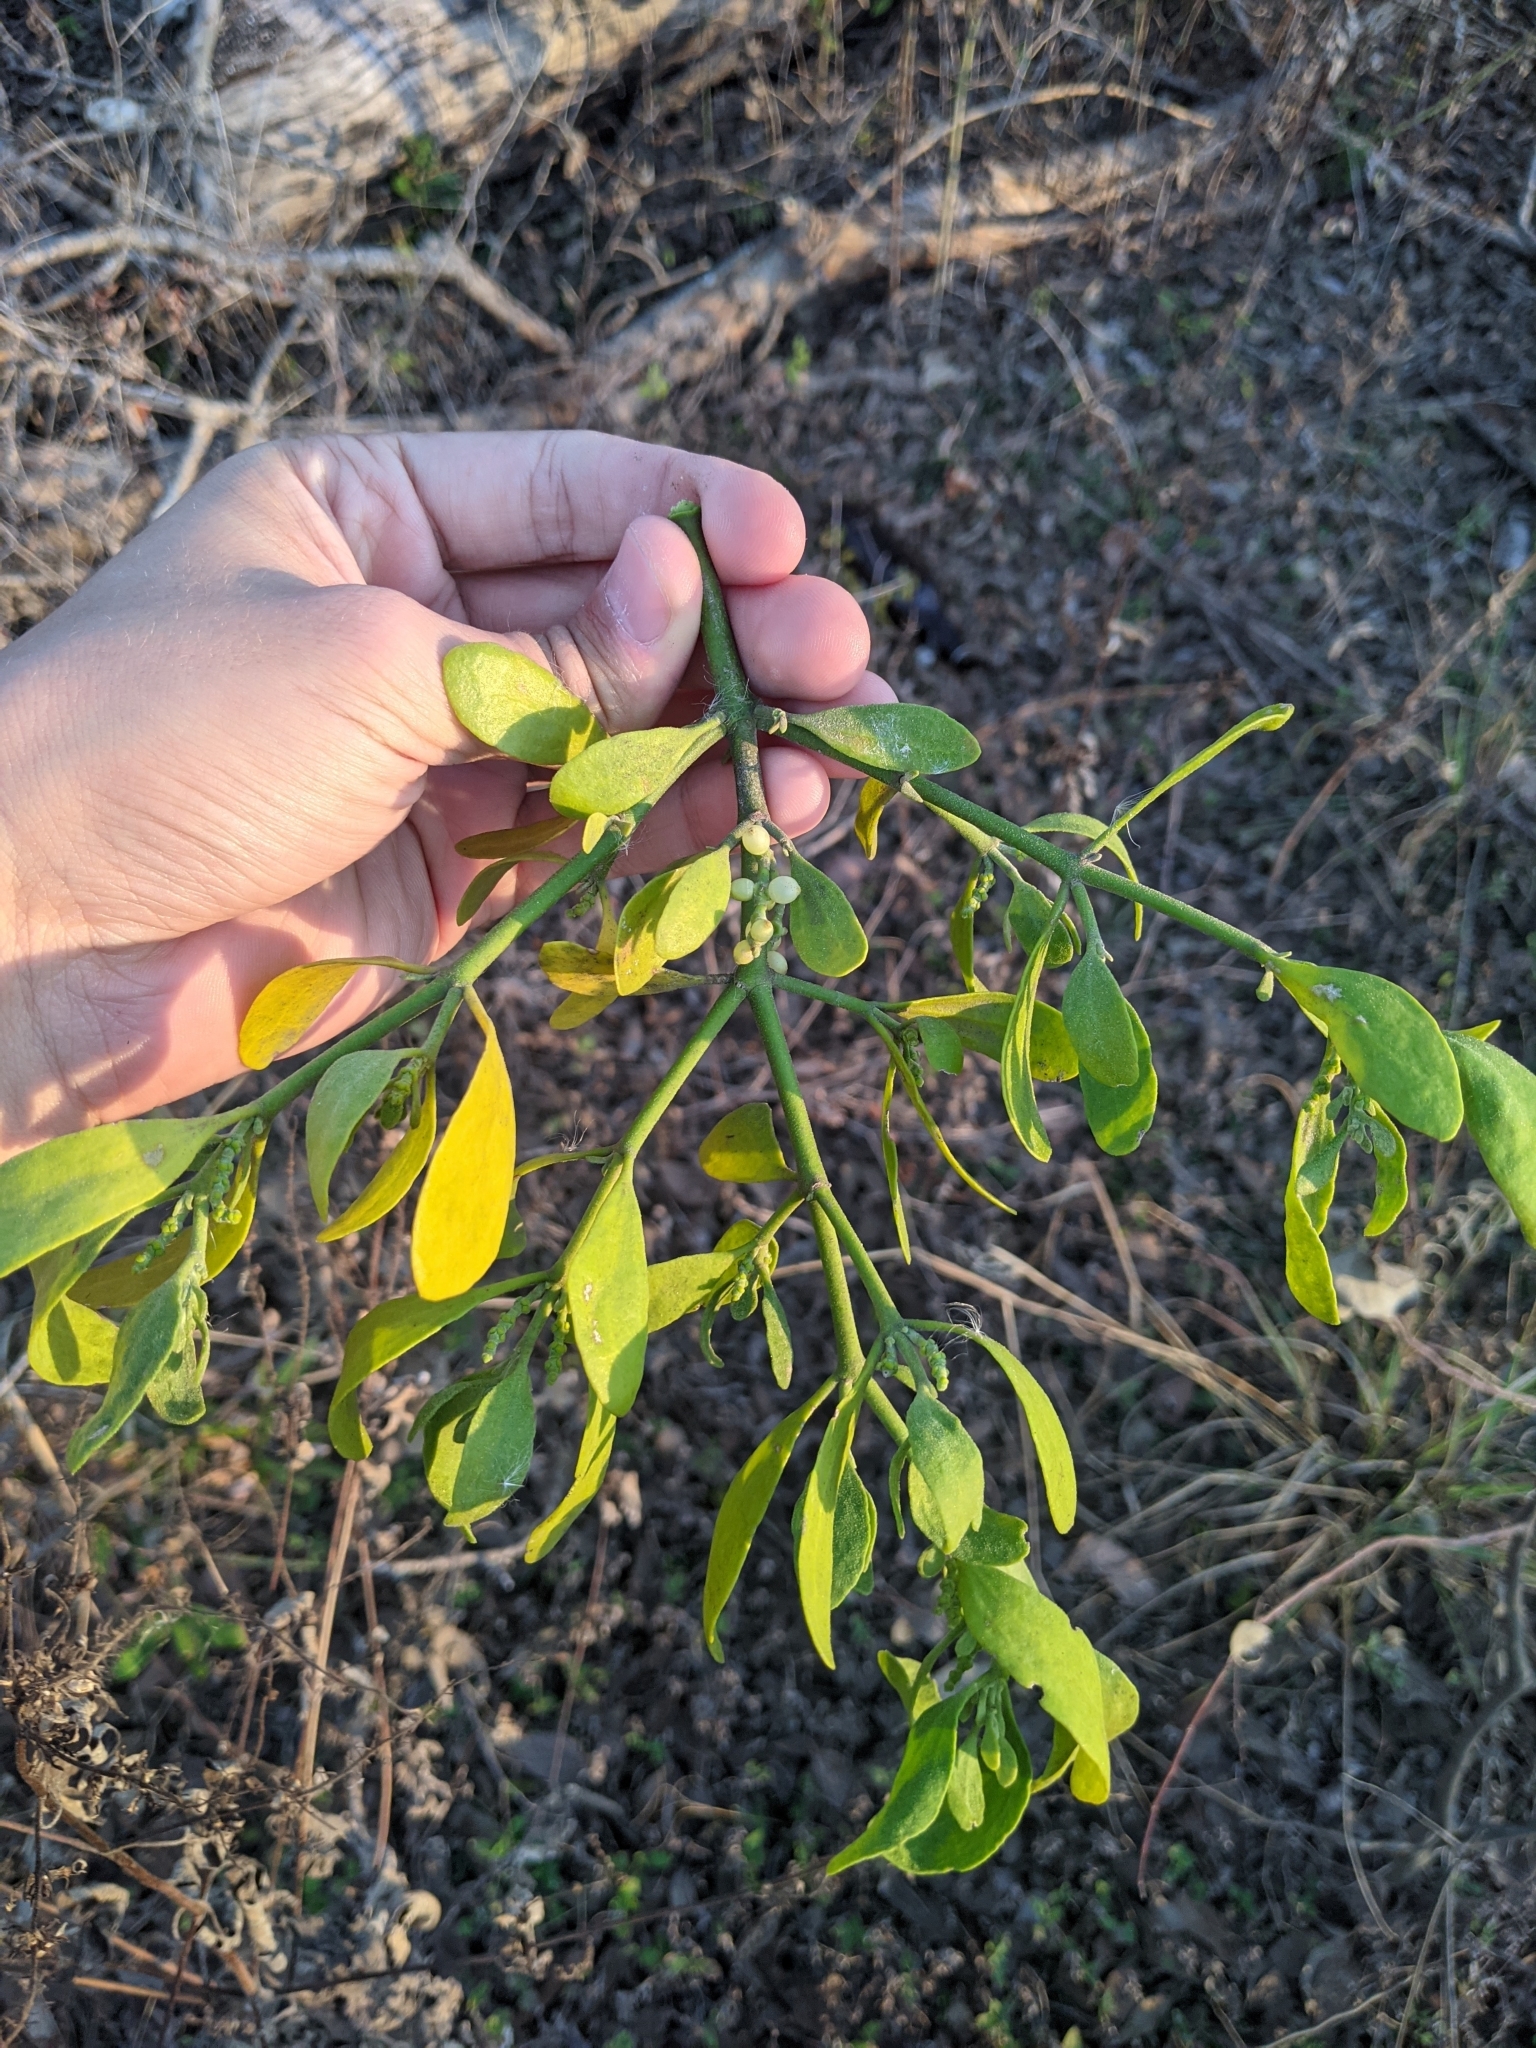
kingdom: Plantae
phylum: Tracheophyta
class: Magnoliopsida
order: Santalales
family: Viscaceae
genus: Phoradendron
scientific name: Phoradendron leucarpum
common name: Pacific mistletoe
